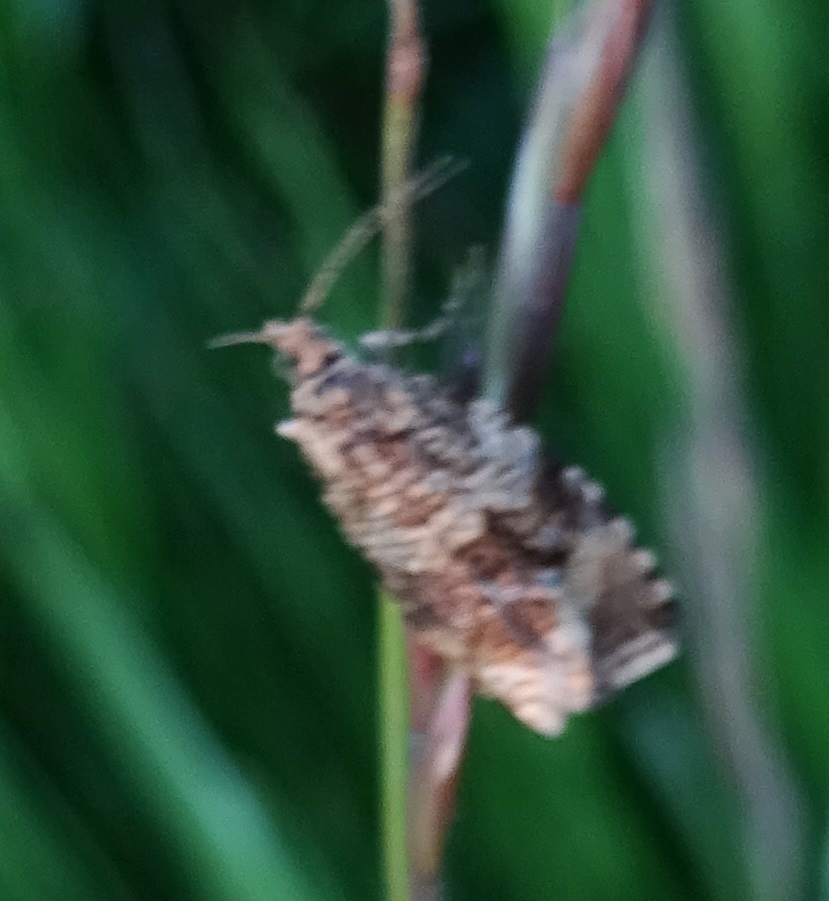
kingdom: Animalia
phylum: Arthropoda
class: Insecta
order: Lepidoptera
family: Tortricidae
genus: Syricoris
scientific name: Syricoris lacunana
